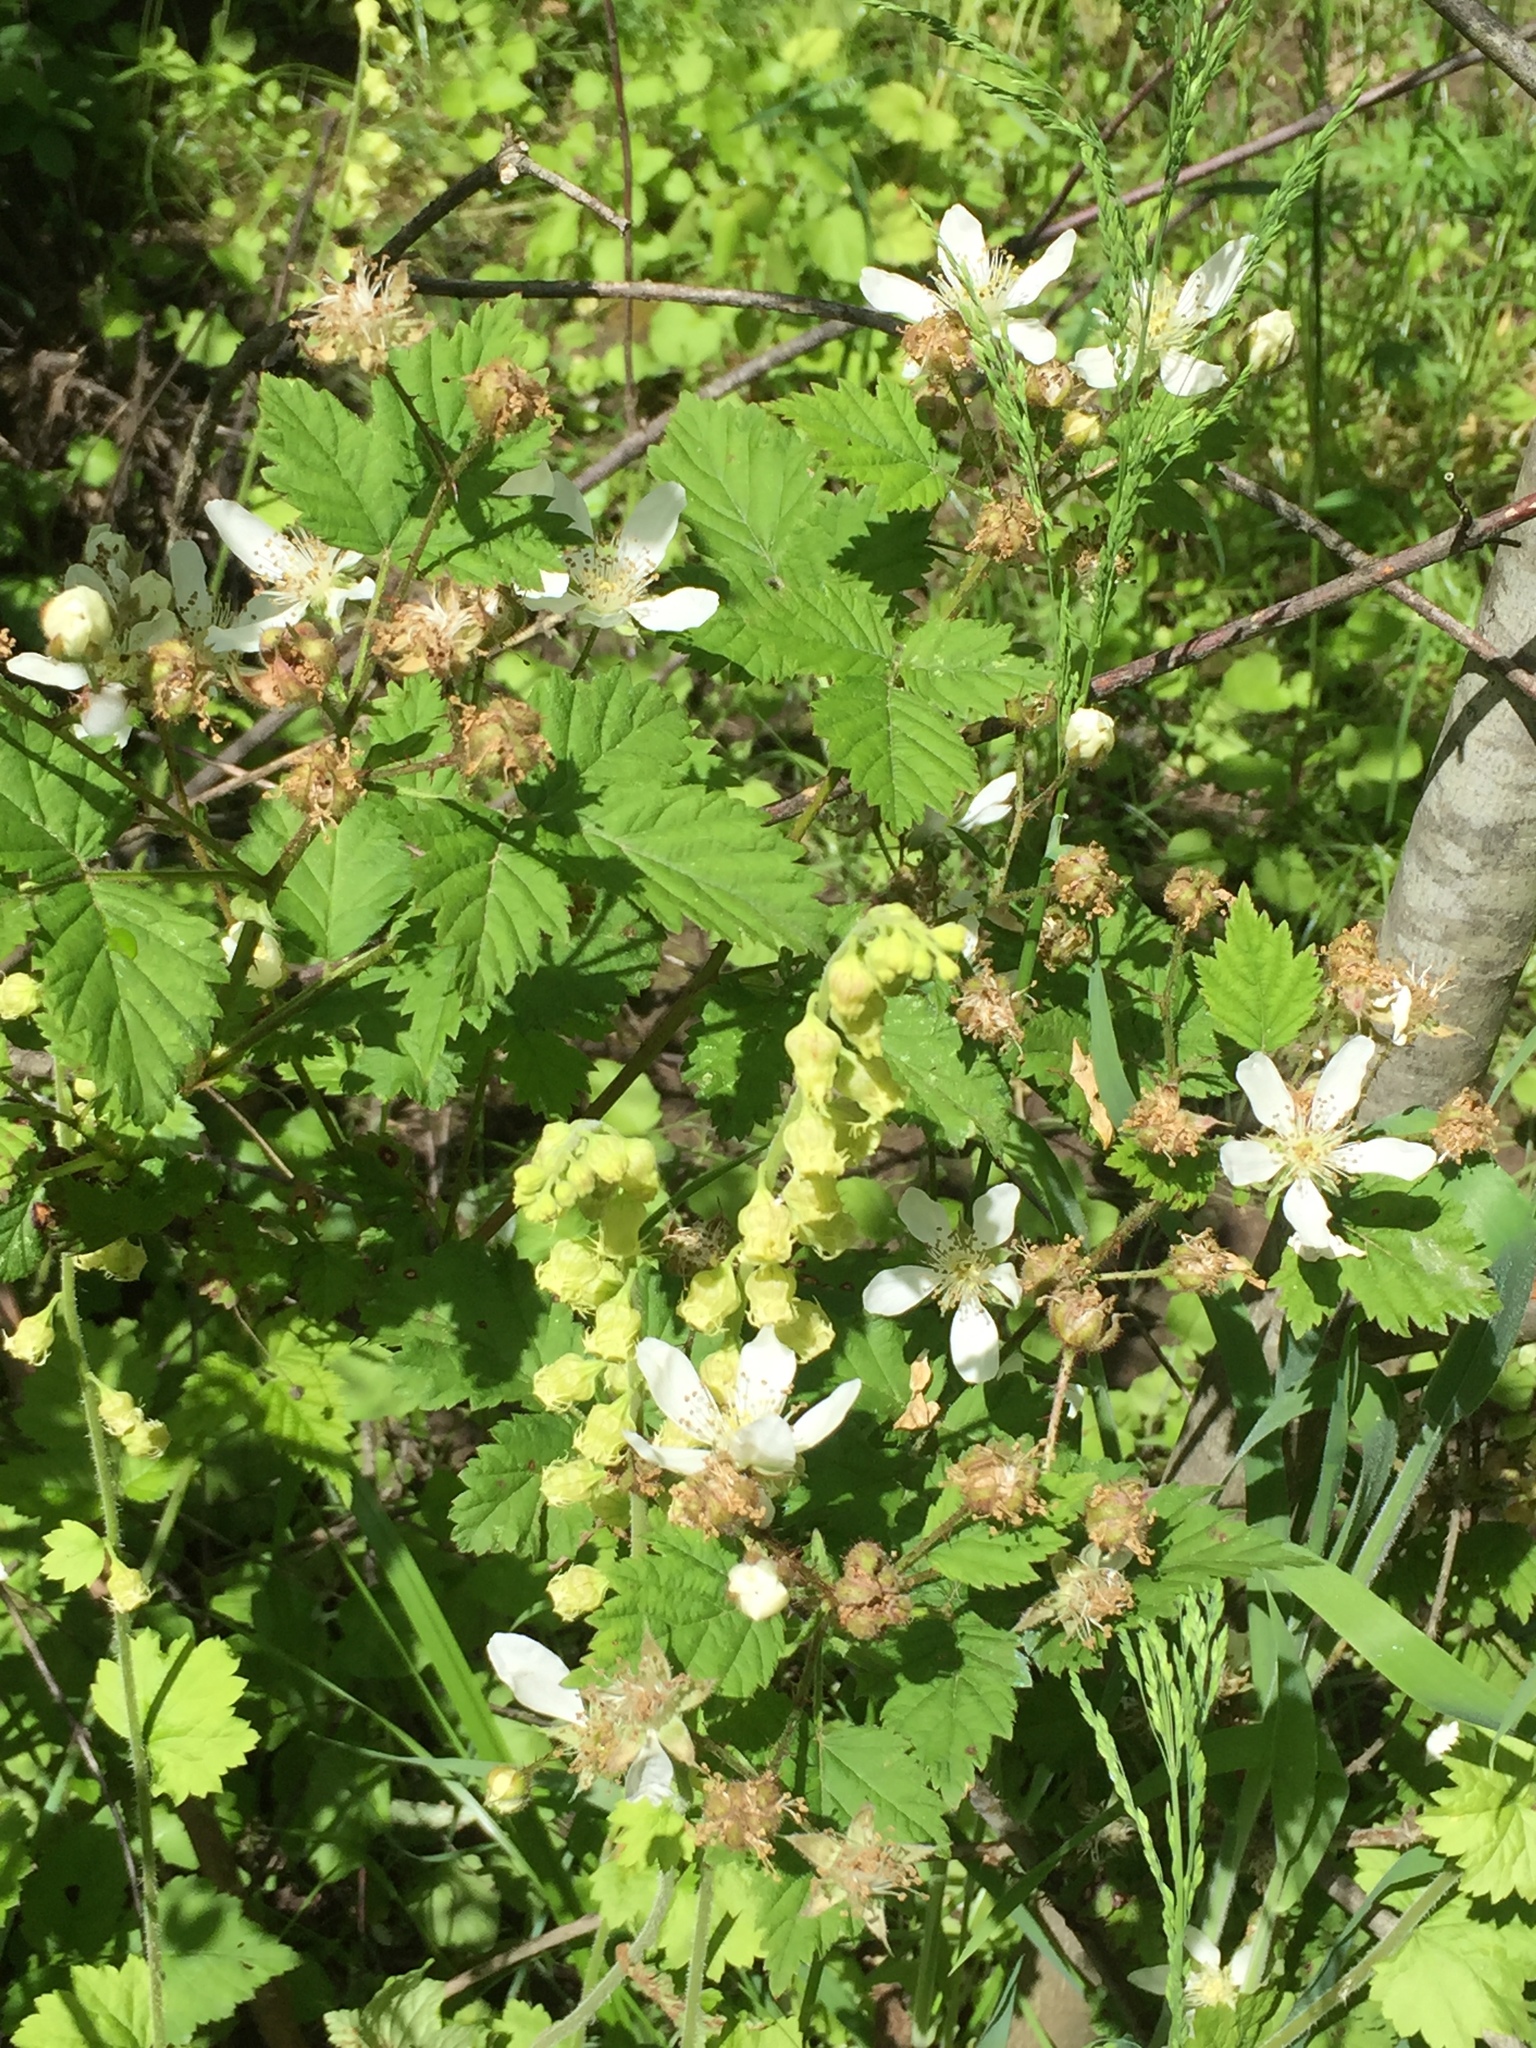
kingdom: Plantae
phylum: Tracheophyta
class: Magnoliopsida
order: Rosales
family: Rosaceae
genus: Rubus
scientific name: Rubus ursinus
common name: Pacific blackberry
